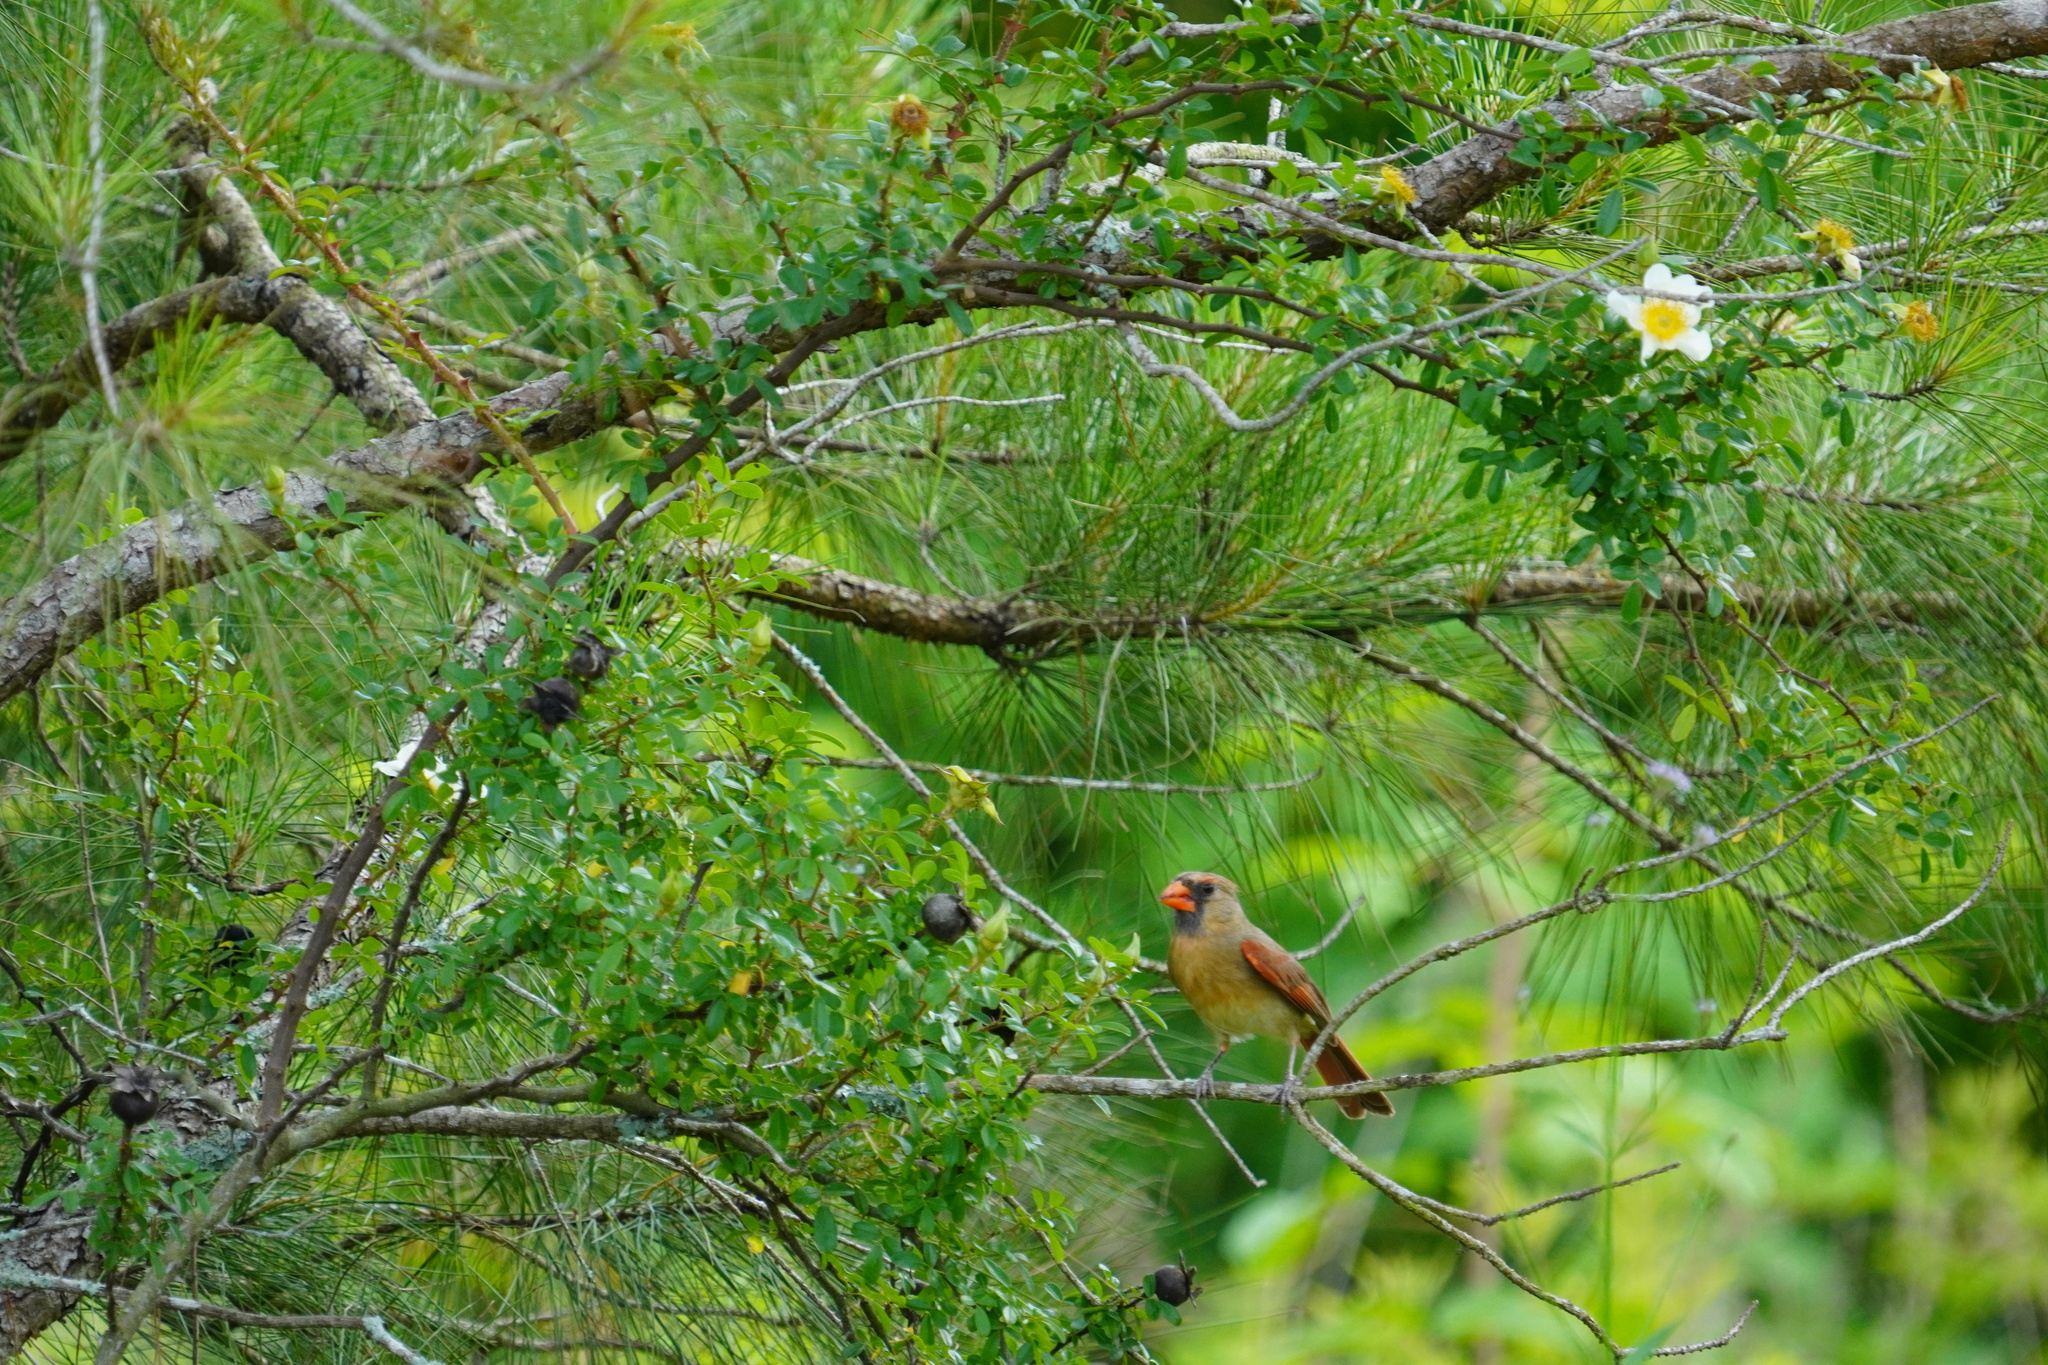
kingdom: Animalia
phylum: Chordata
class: Aves
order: Passeriformes
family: Cardinalidae
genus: Cardinalis
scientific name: Cardinalis cardinalis
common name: Northern cardinal
